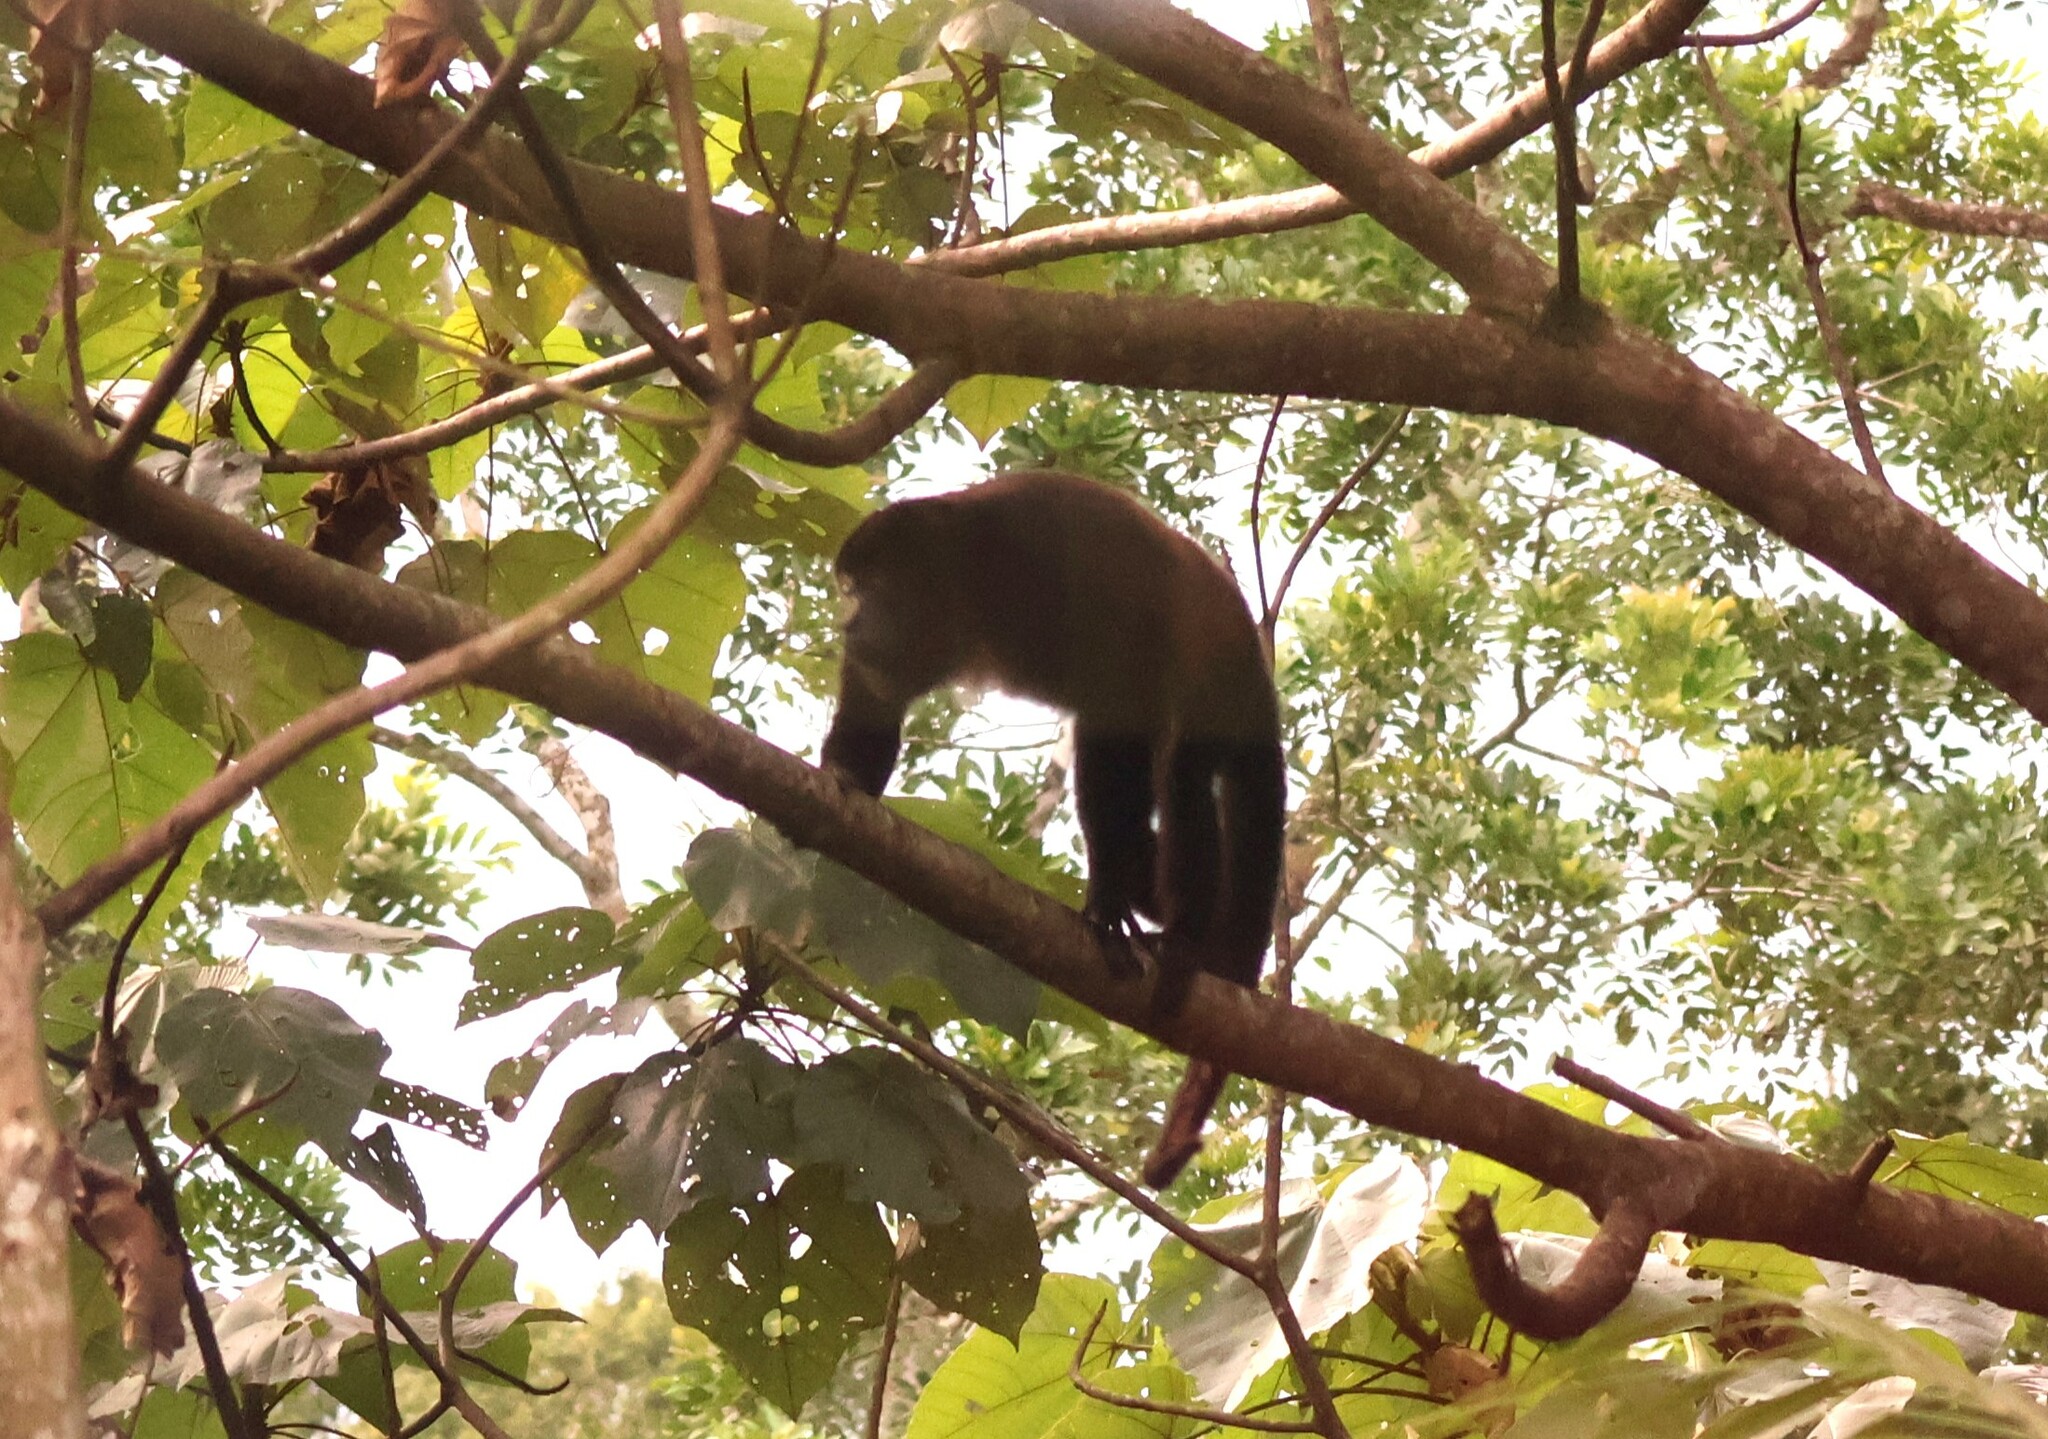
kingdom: Animalia
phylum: Chordata
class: Mammalia
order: Primates
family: Atelidae
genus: Alouatta
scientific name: Alouatta palliata
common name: Mantled howler
